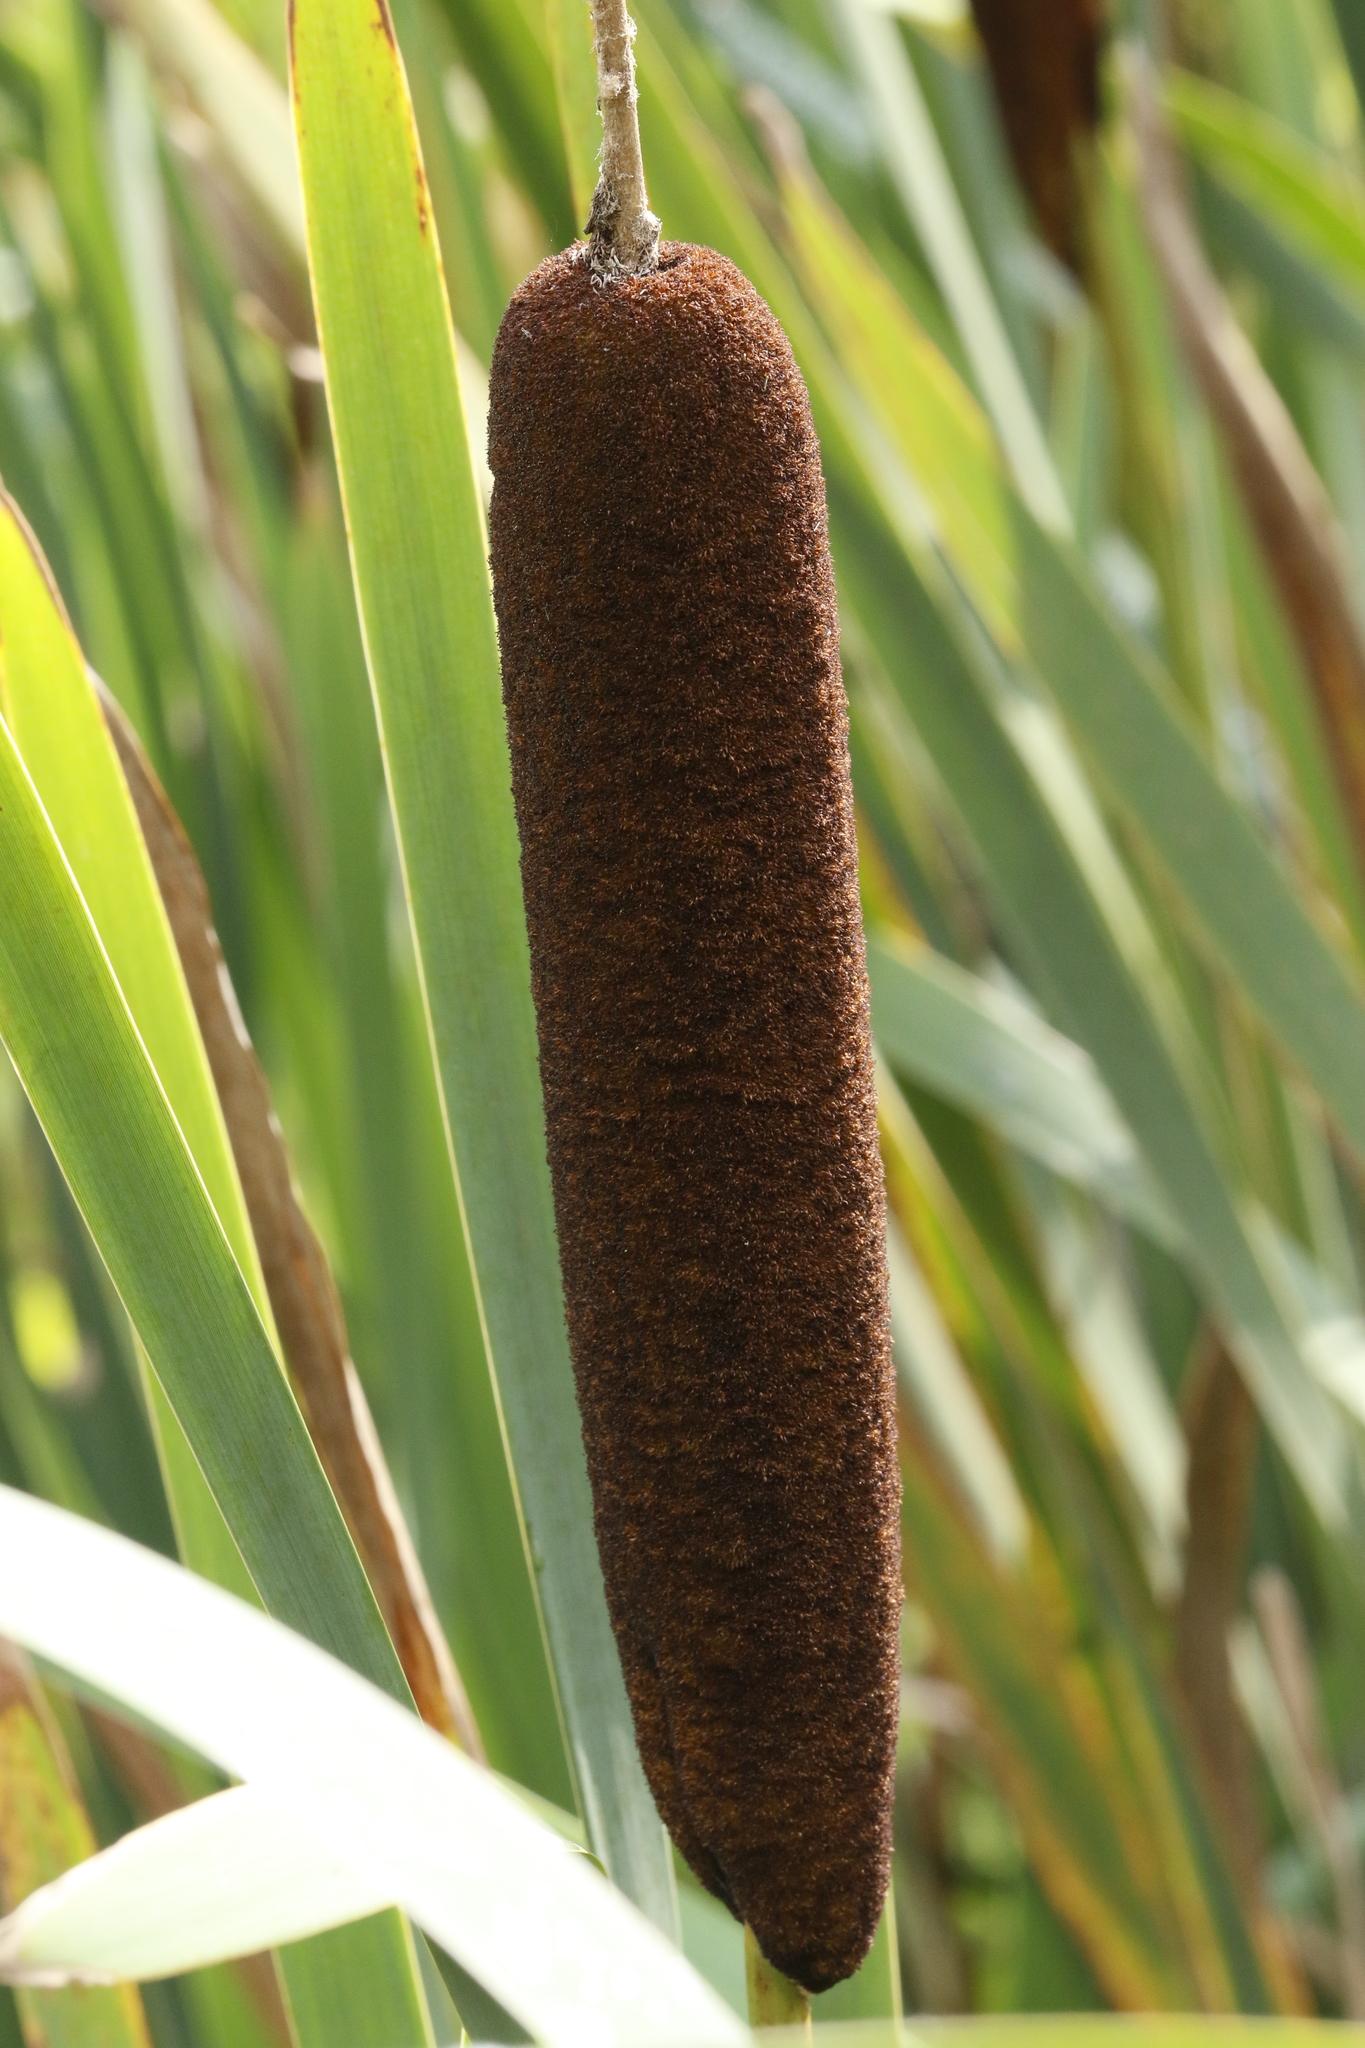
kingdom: Plantae
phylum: Tracheophyta
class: Liliopsida
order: Poales
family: Typhaceae
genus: Typha
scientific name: Typha latifolia
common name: Broadleaf cattail
